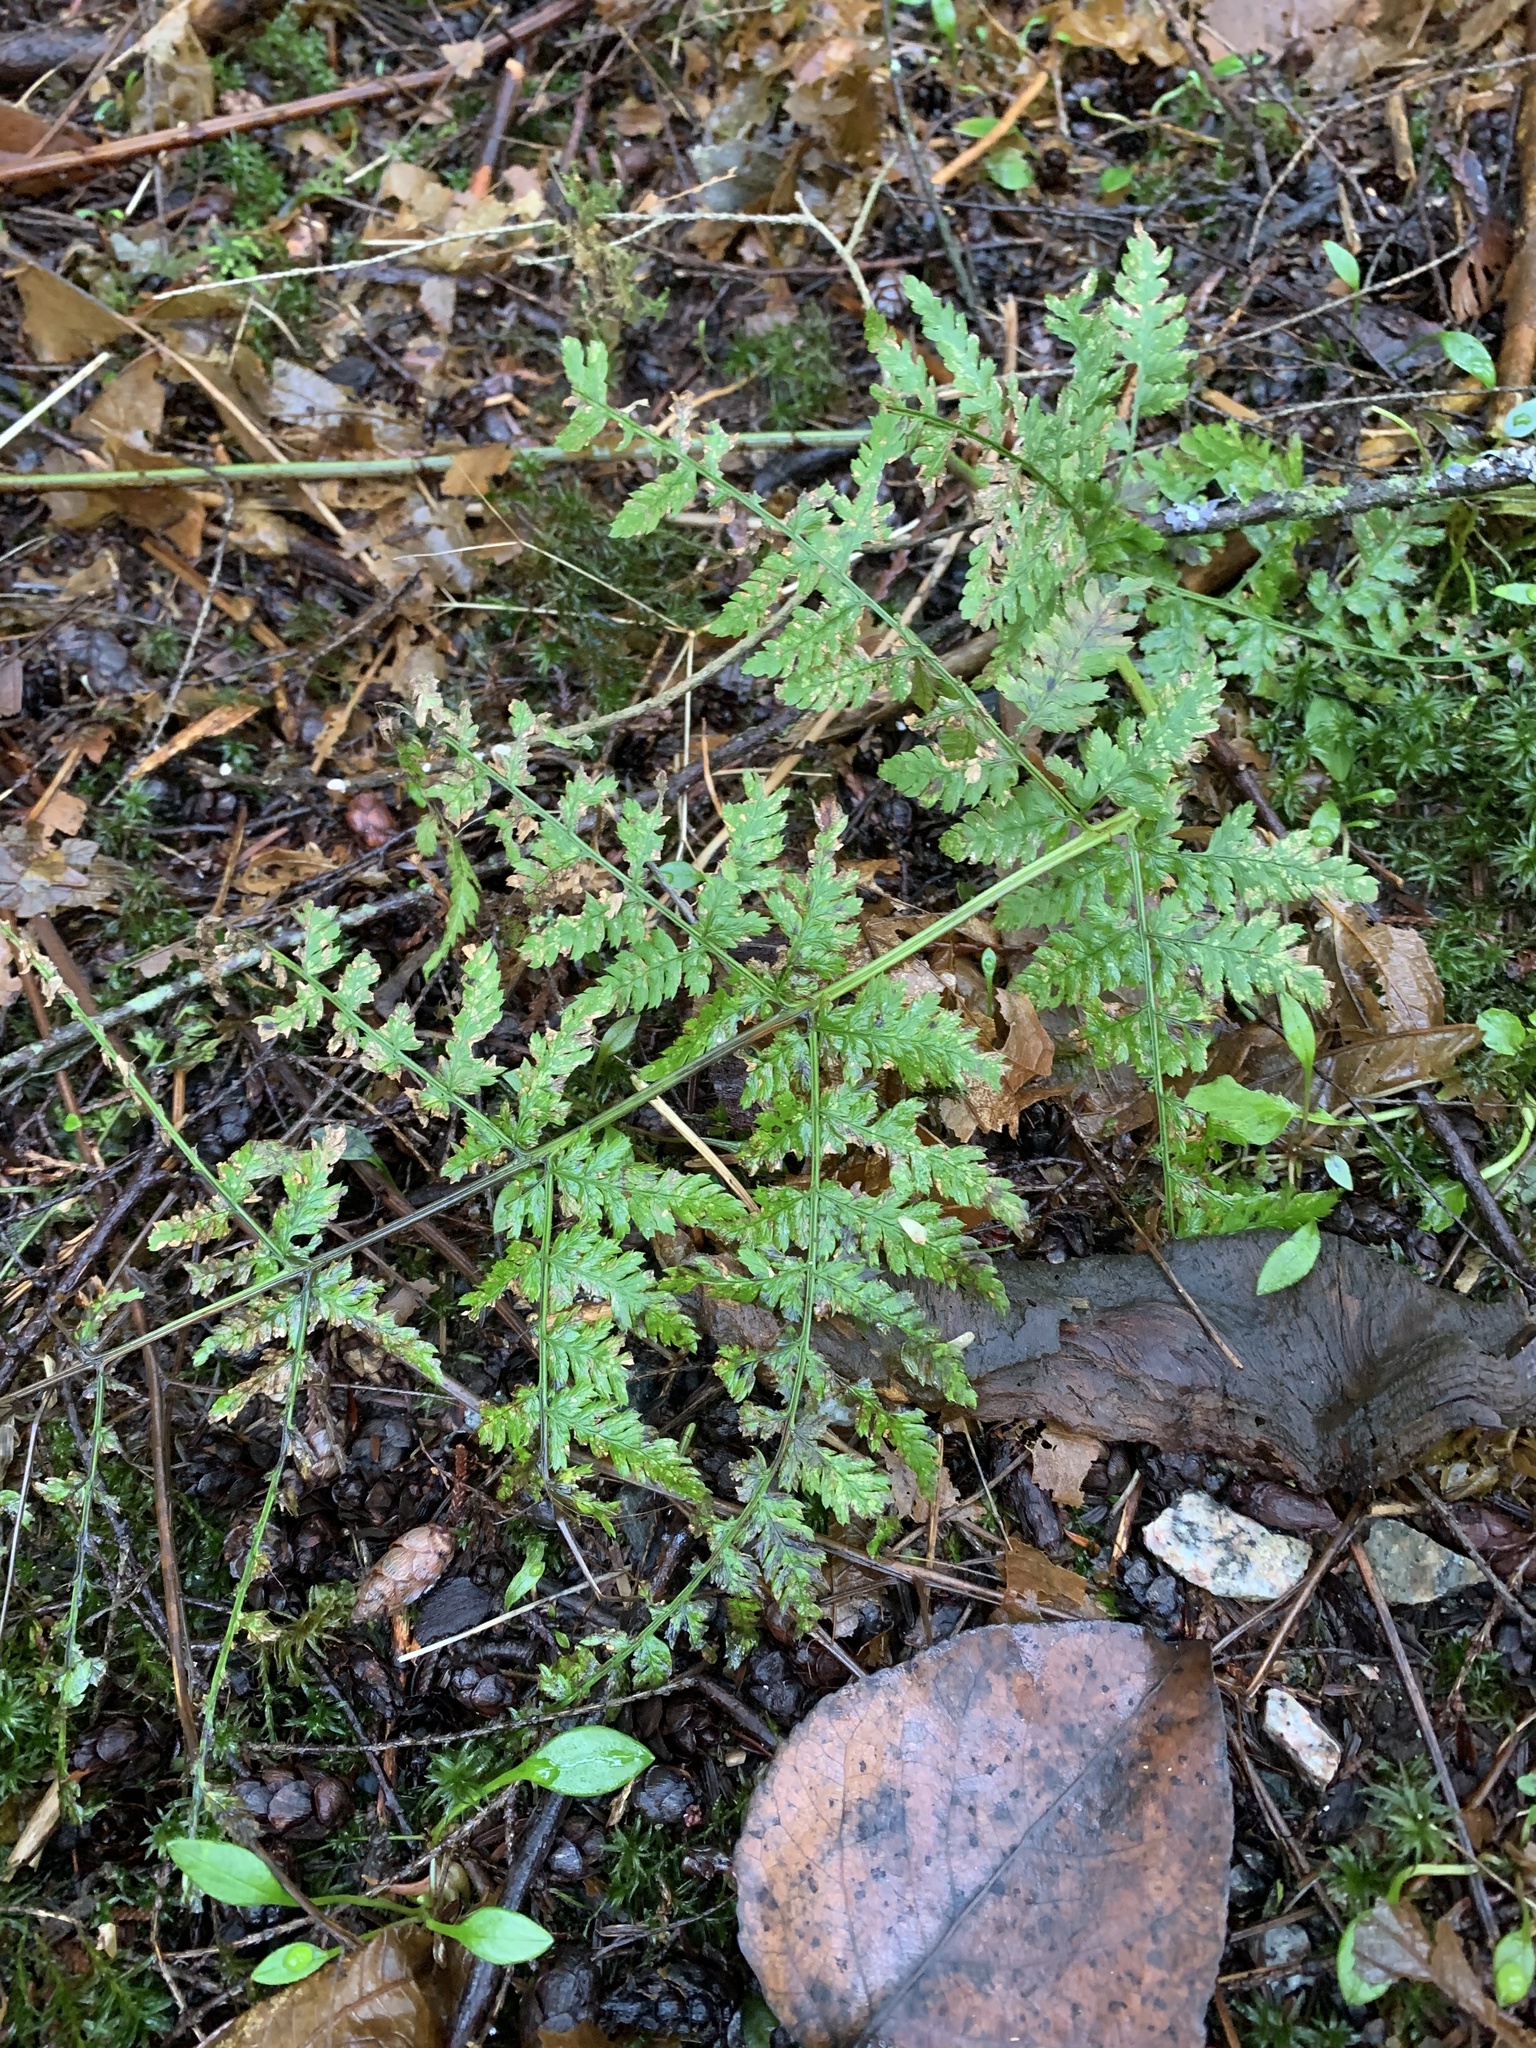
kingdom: Plantae
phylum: Tracheophyta
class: Polypodiopsida
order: Polypodiales
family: Dryopteridaceae
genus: Dryopteris
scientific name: Dryopteris expansa
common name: Northern buckler fern
